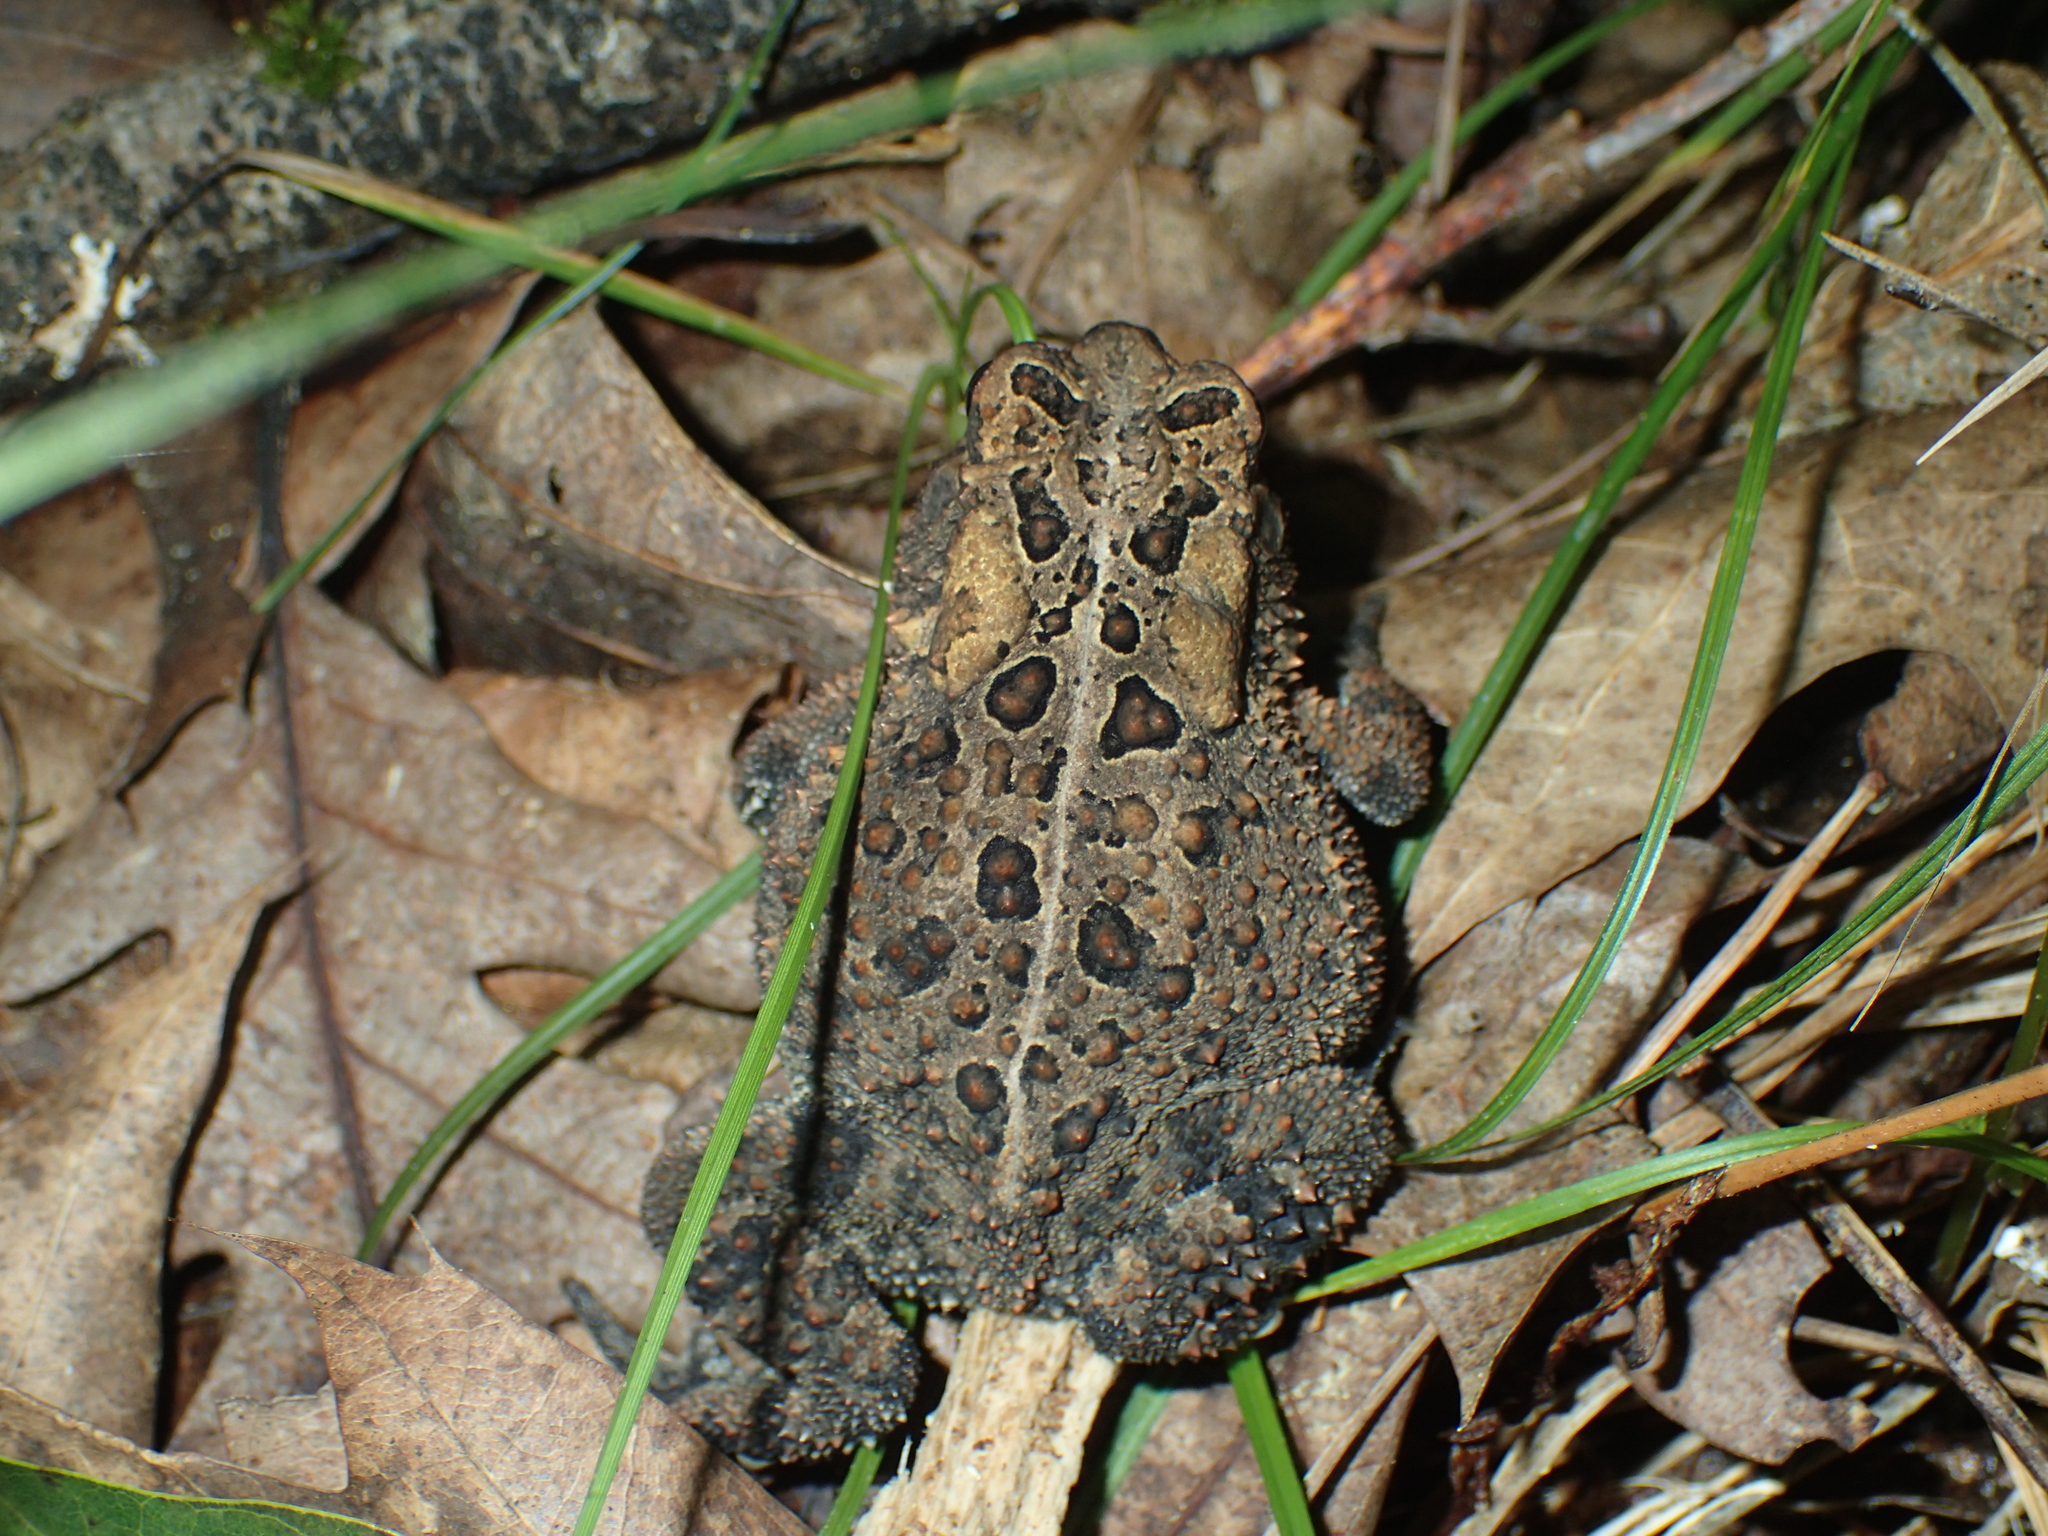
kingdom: Animalia
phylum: Chordata
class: Amphibia
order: Anura
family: Bufonidae
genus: Anaxyrus
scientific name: Anaxyrus americanus
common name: American toad
